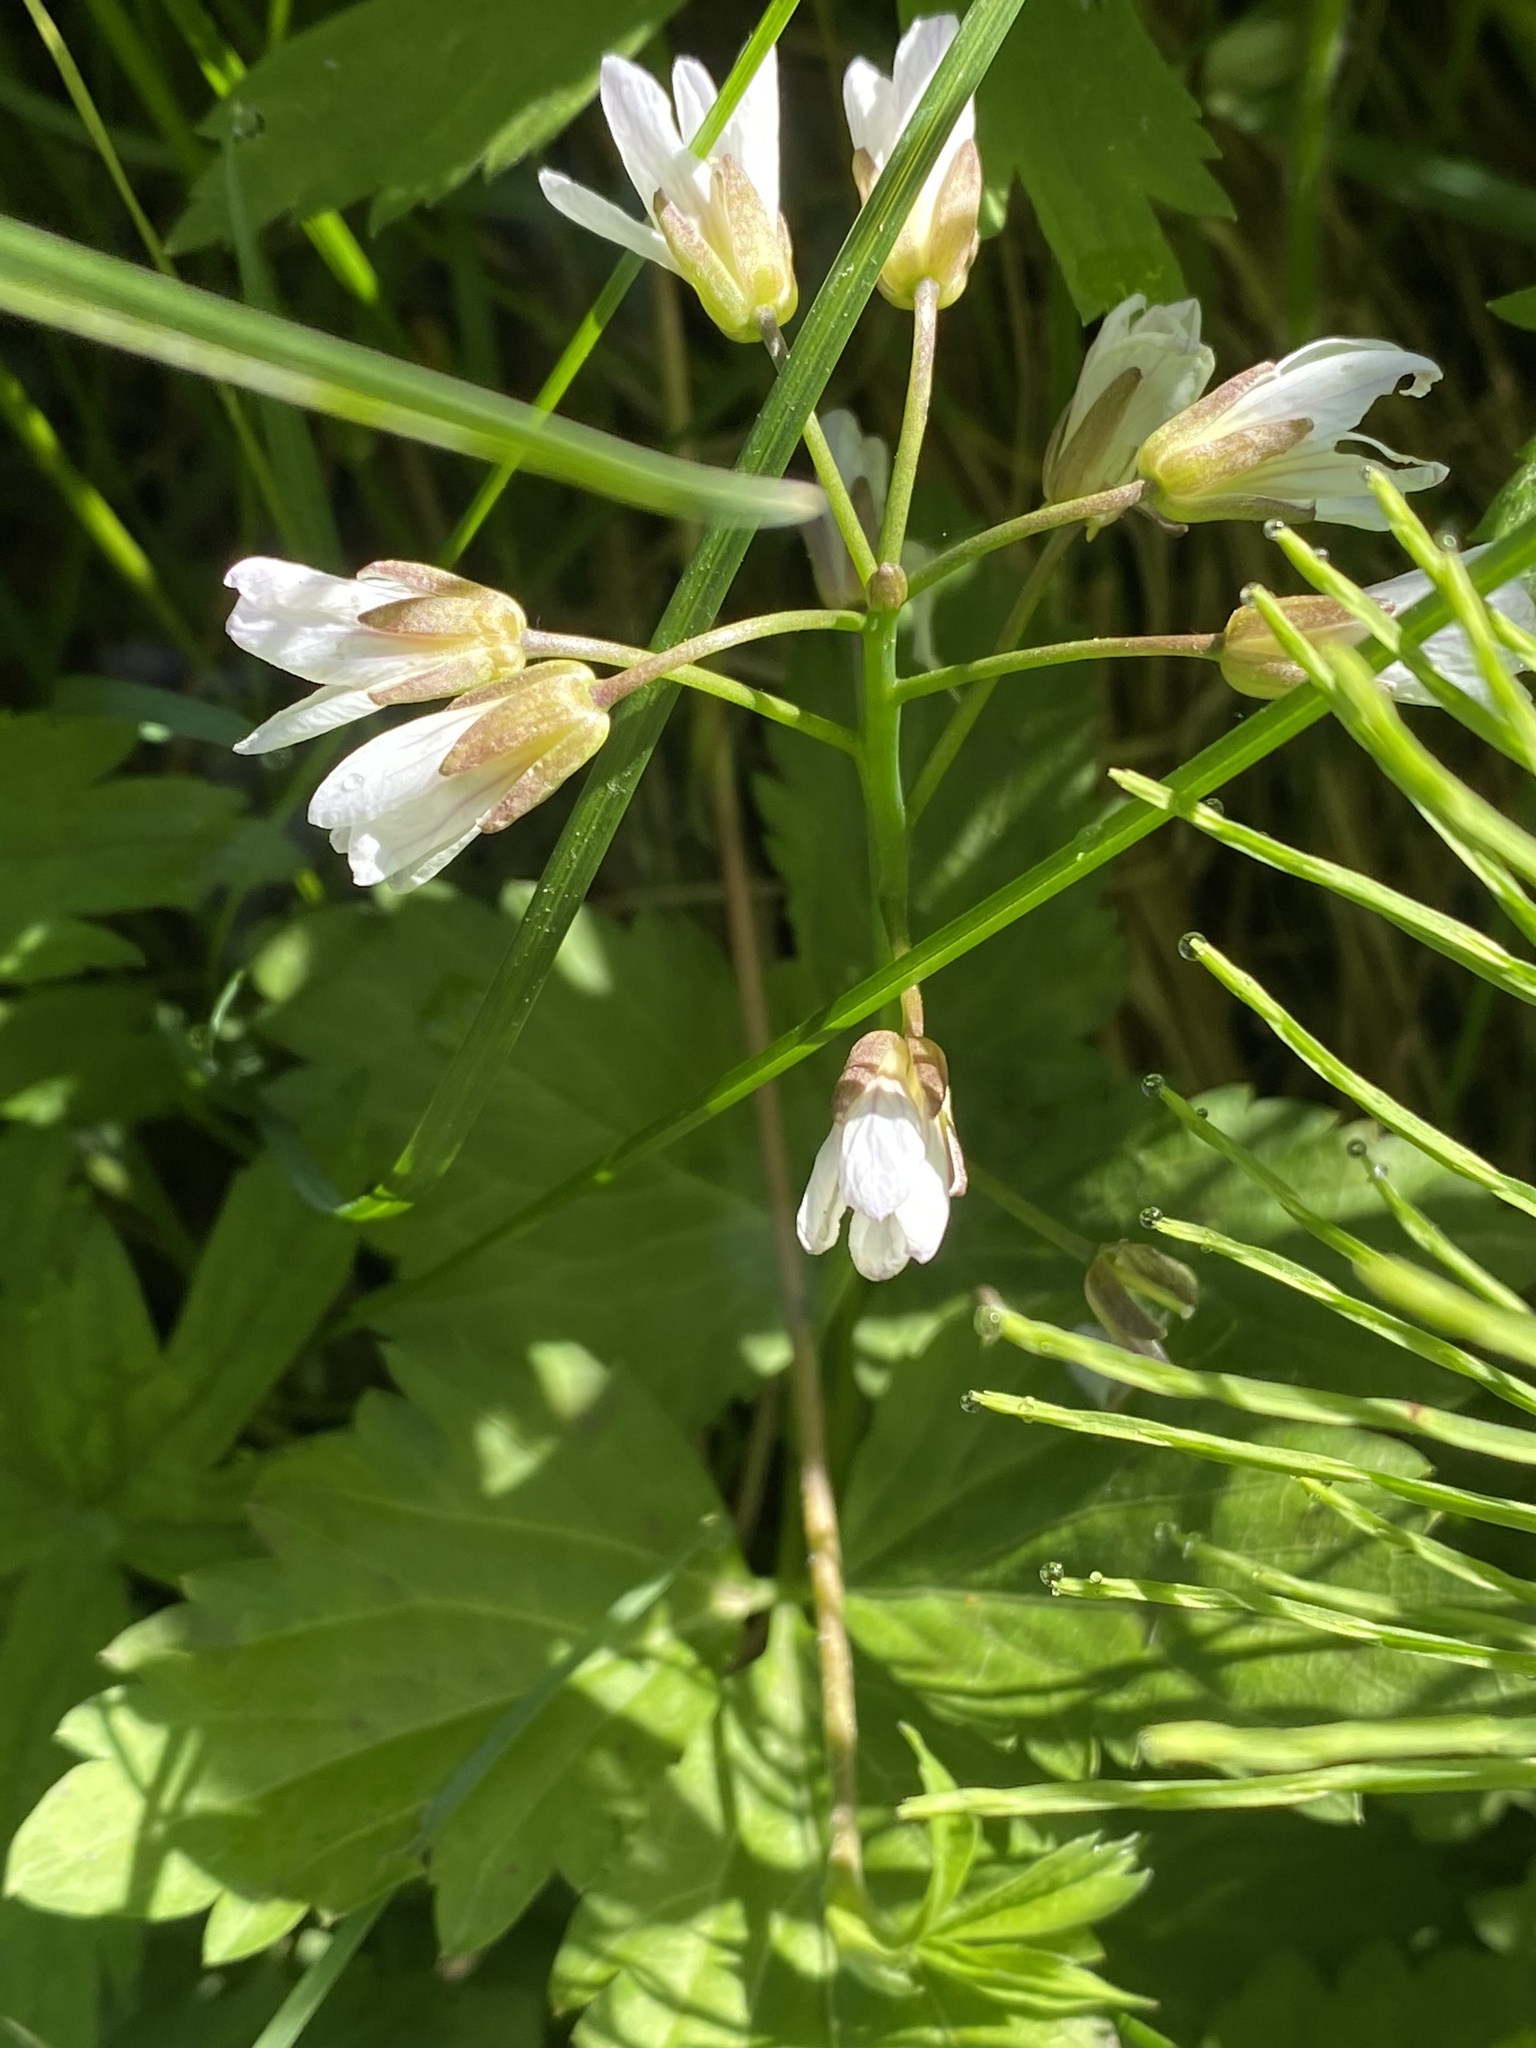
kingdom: Plantae
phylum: Tracheophyta
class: Magnoliopsida
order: Brassicales
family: Brassicaceae
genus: Cardamine
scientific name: Cardamine diphylla
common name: Broad-leaved toothwort
